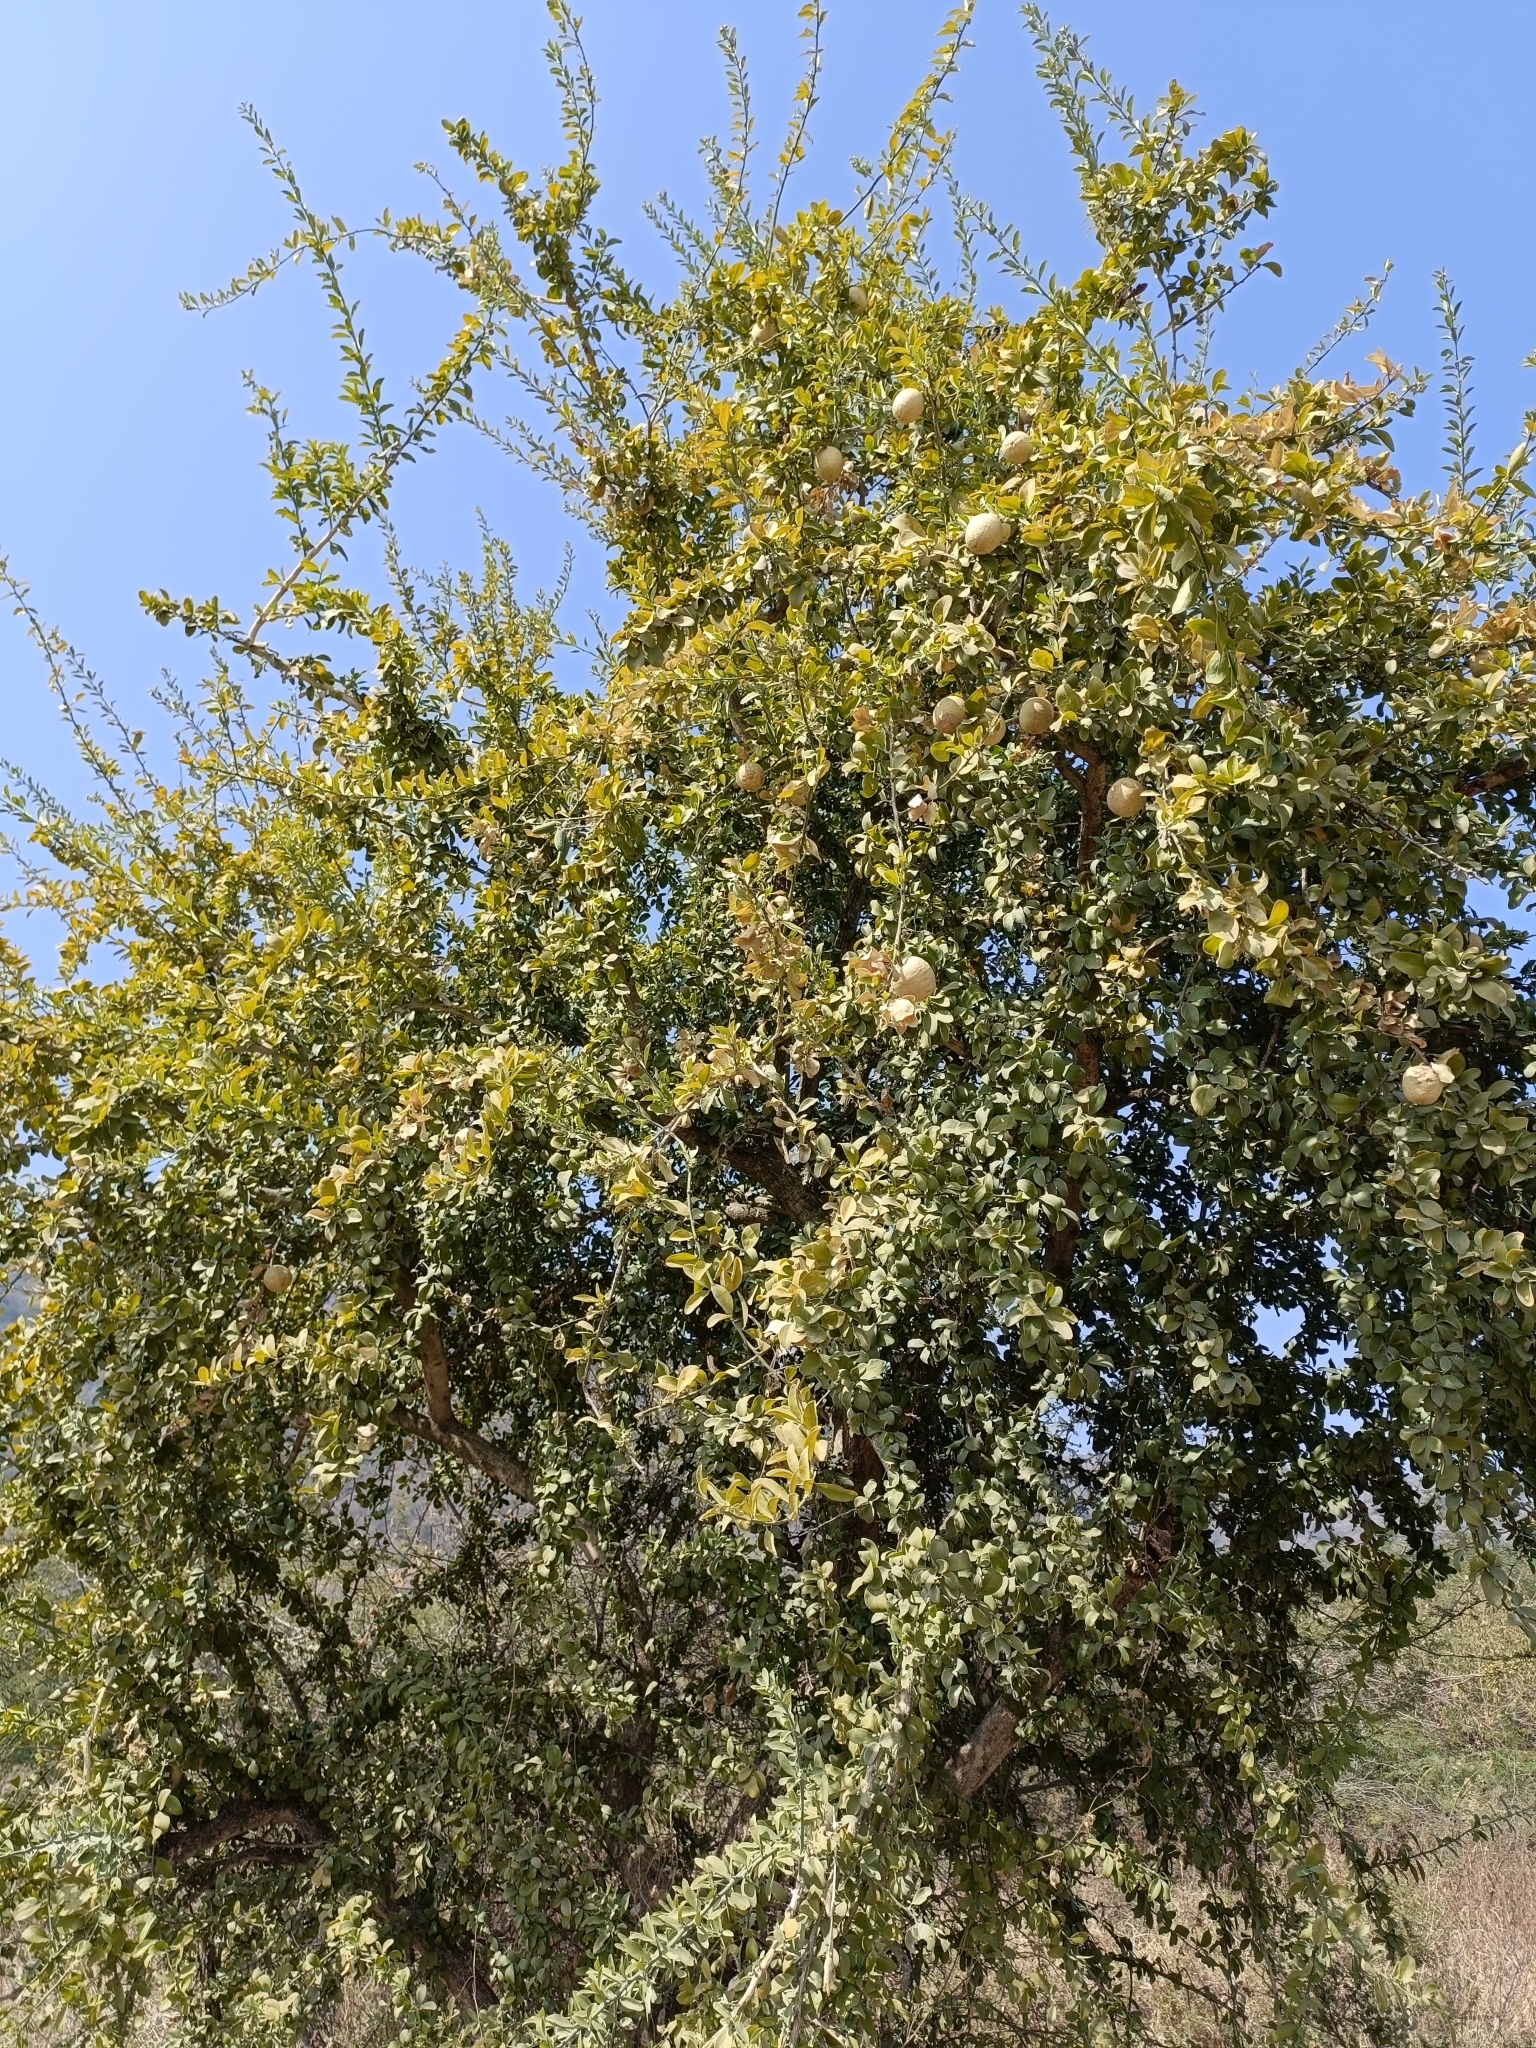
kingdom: Plantae
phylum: Tracheophyta
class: Magnoliopsida
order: Sapindales
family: Rutaceae
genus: Aegle
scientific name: Aegle marmelos
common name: Bael
